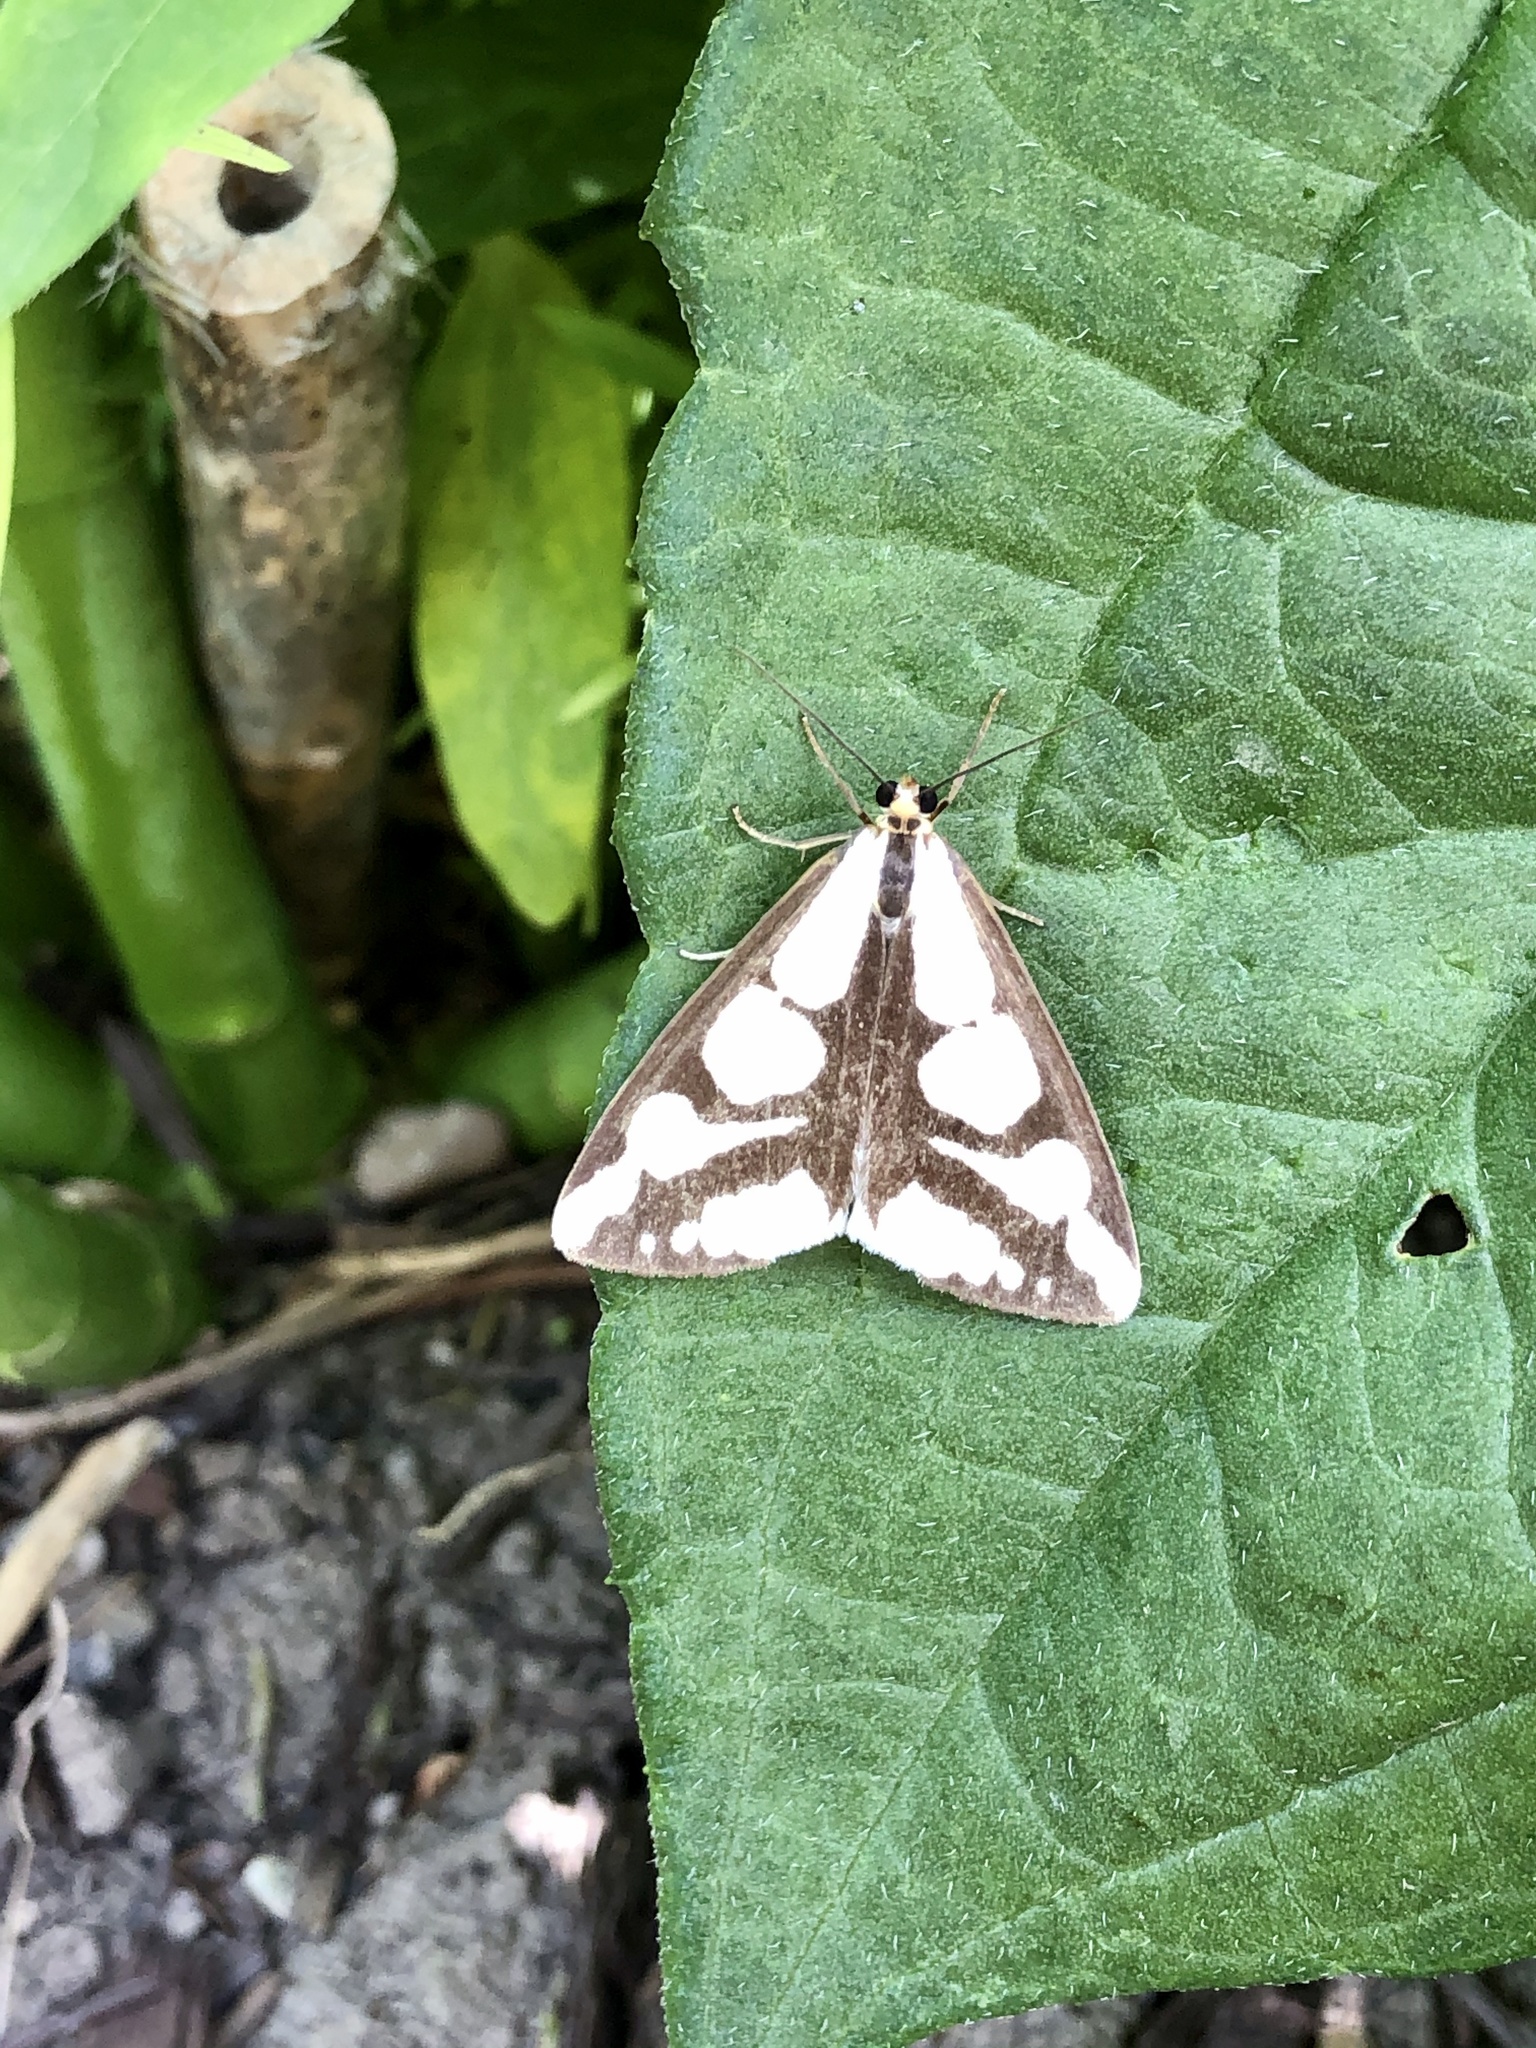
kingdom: Animalia
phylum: Arthropoda
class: Insecta
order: Lepidoptera
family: Erebidae
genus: Haploa
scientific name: Haploa lecontei
